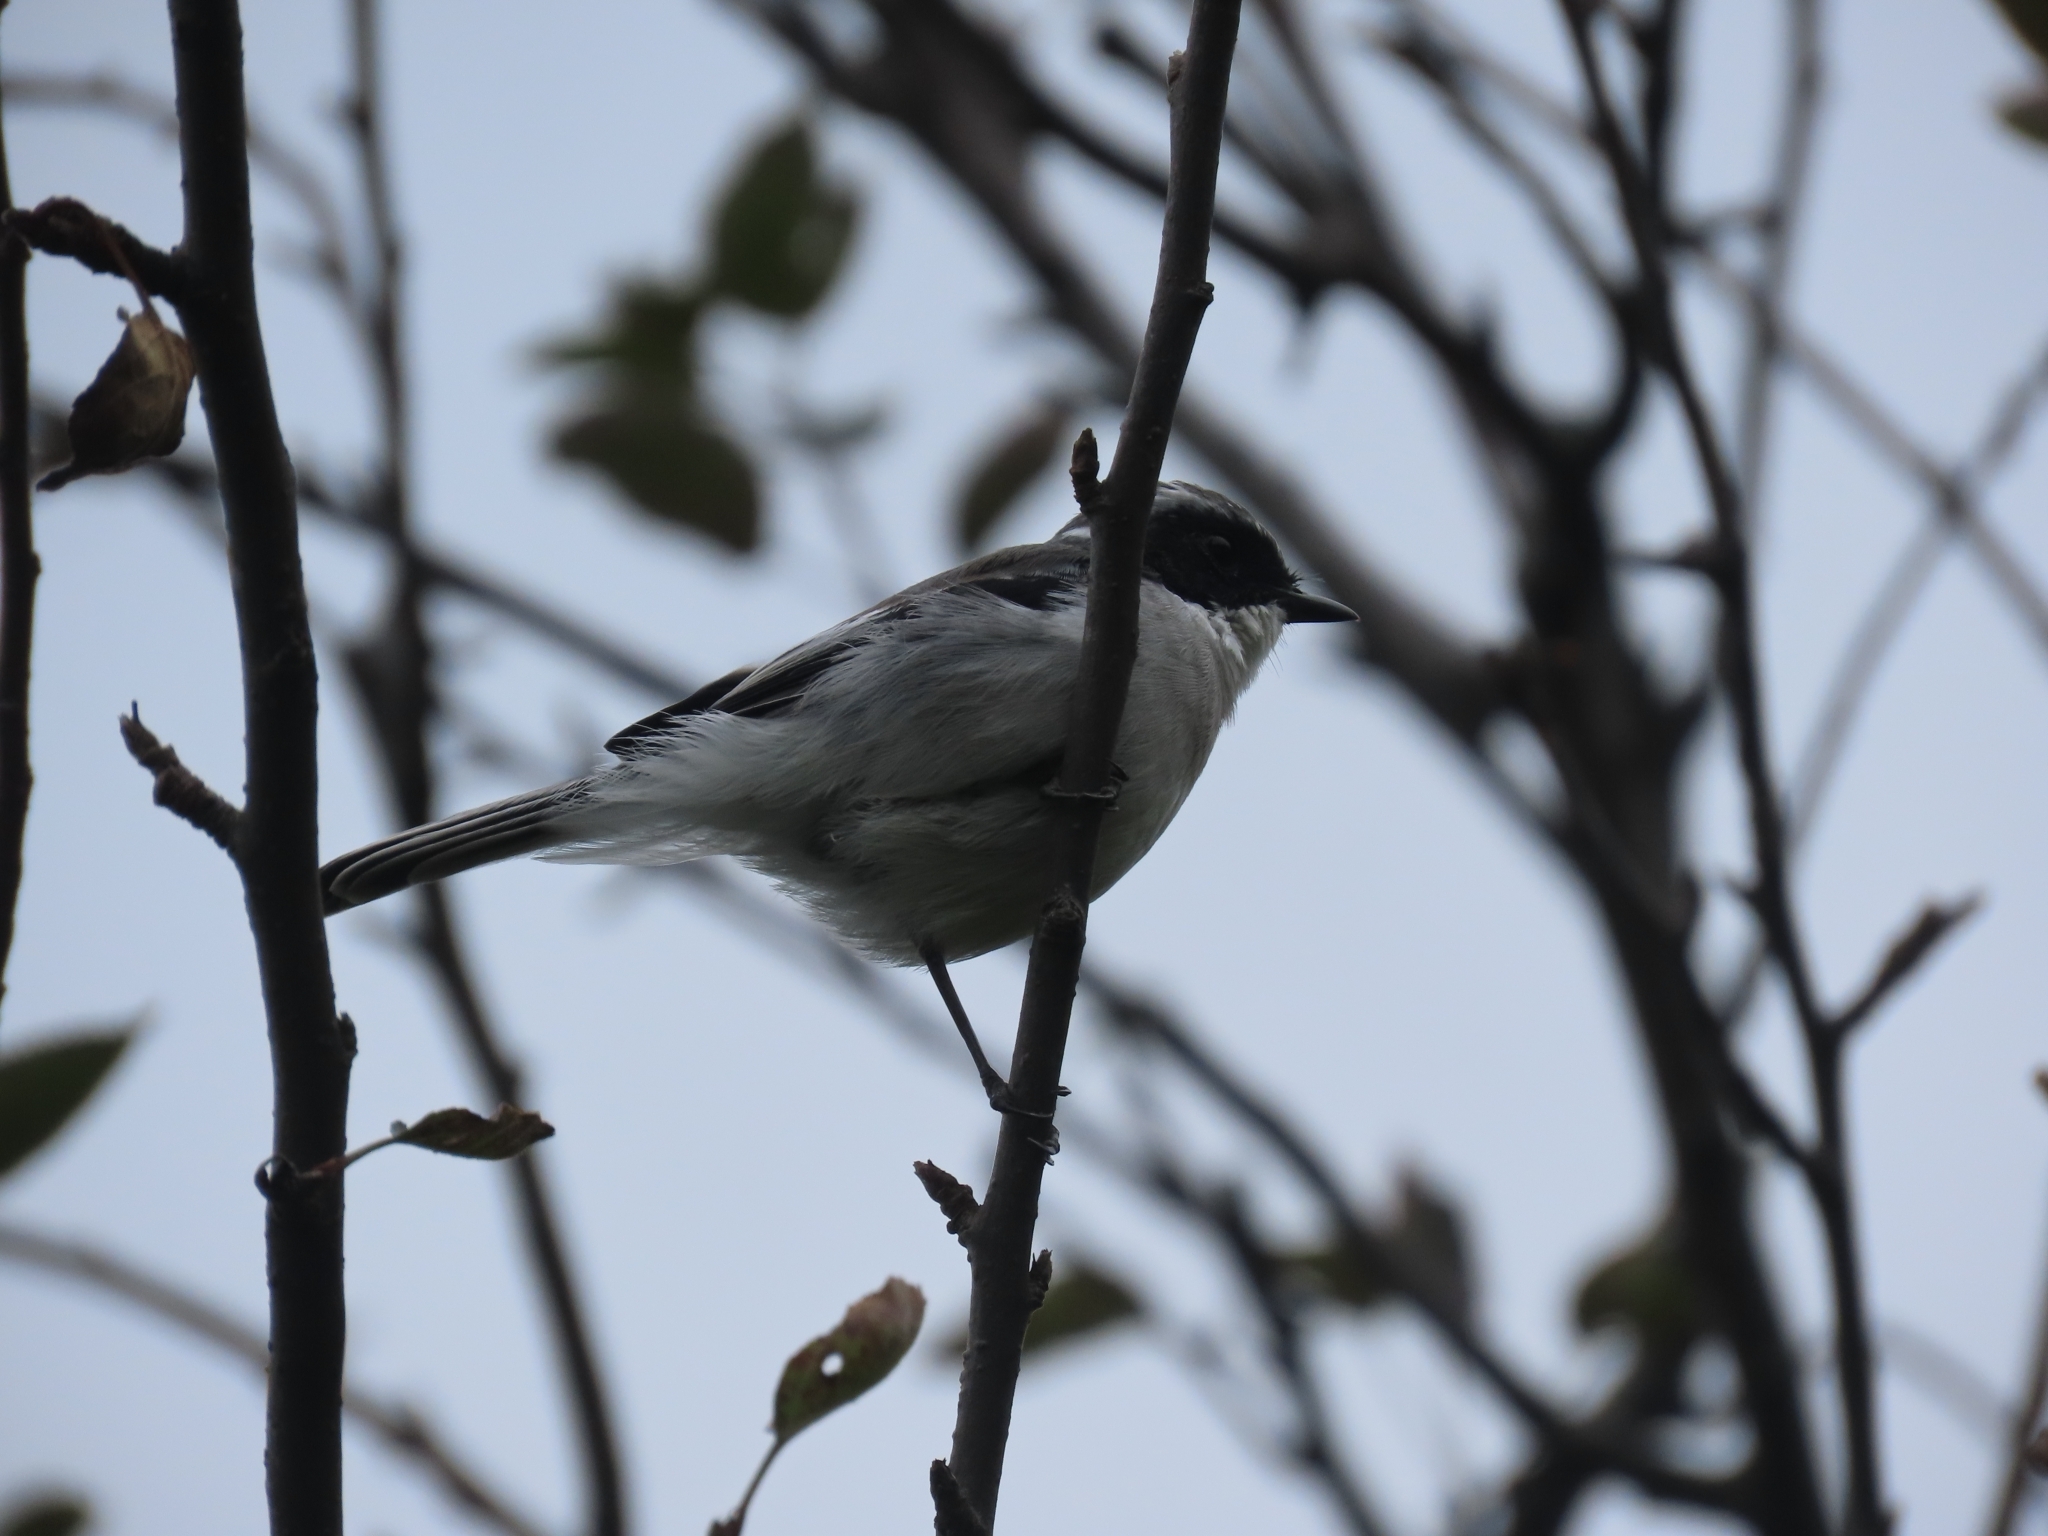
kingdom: Animalia
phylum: Chordata
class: Aves
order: Passeriformes
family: Muscicapidae
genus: Saxicola
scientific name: Saxicola ferreus
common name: Grey bush chat
